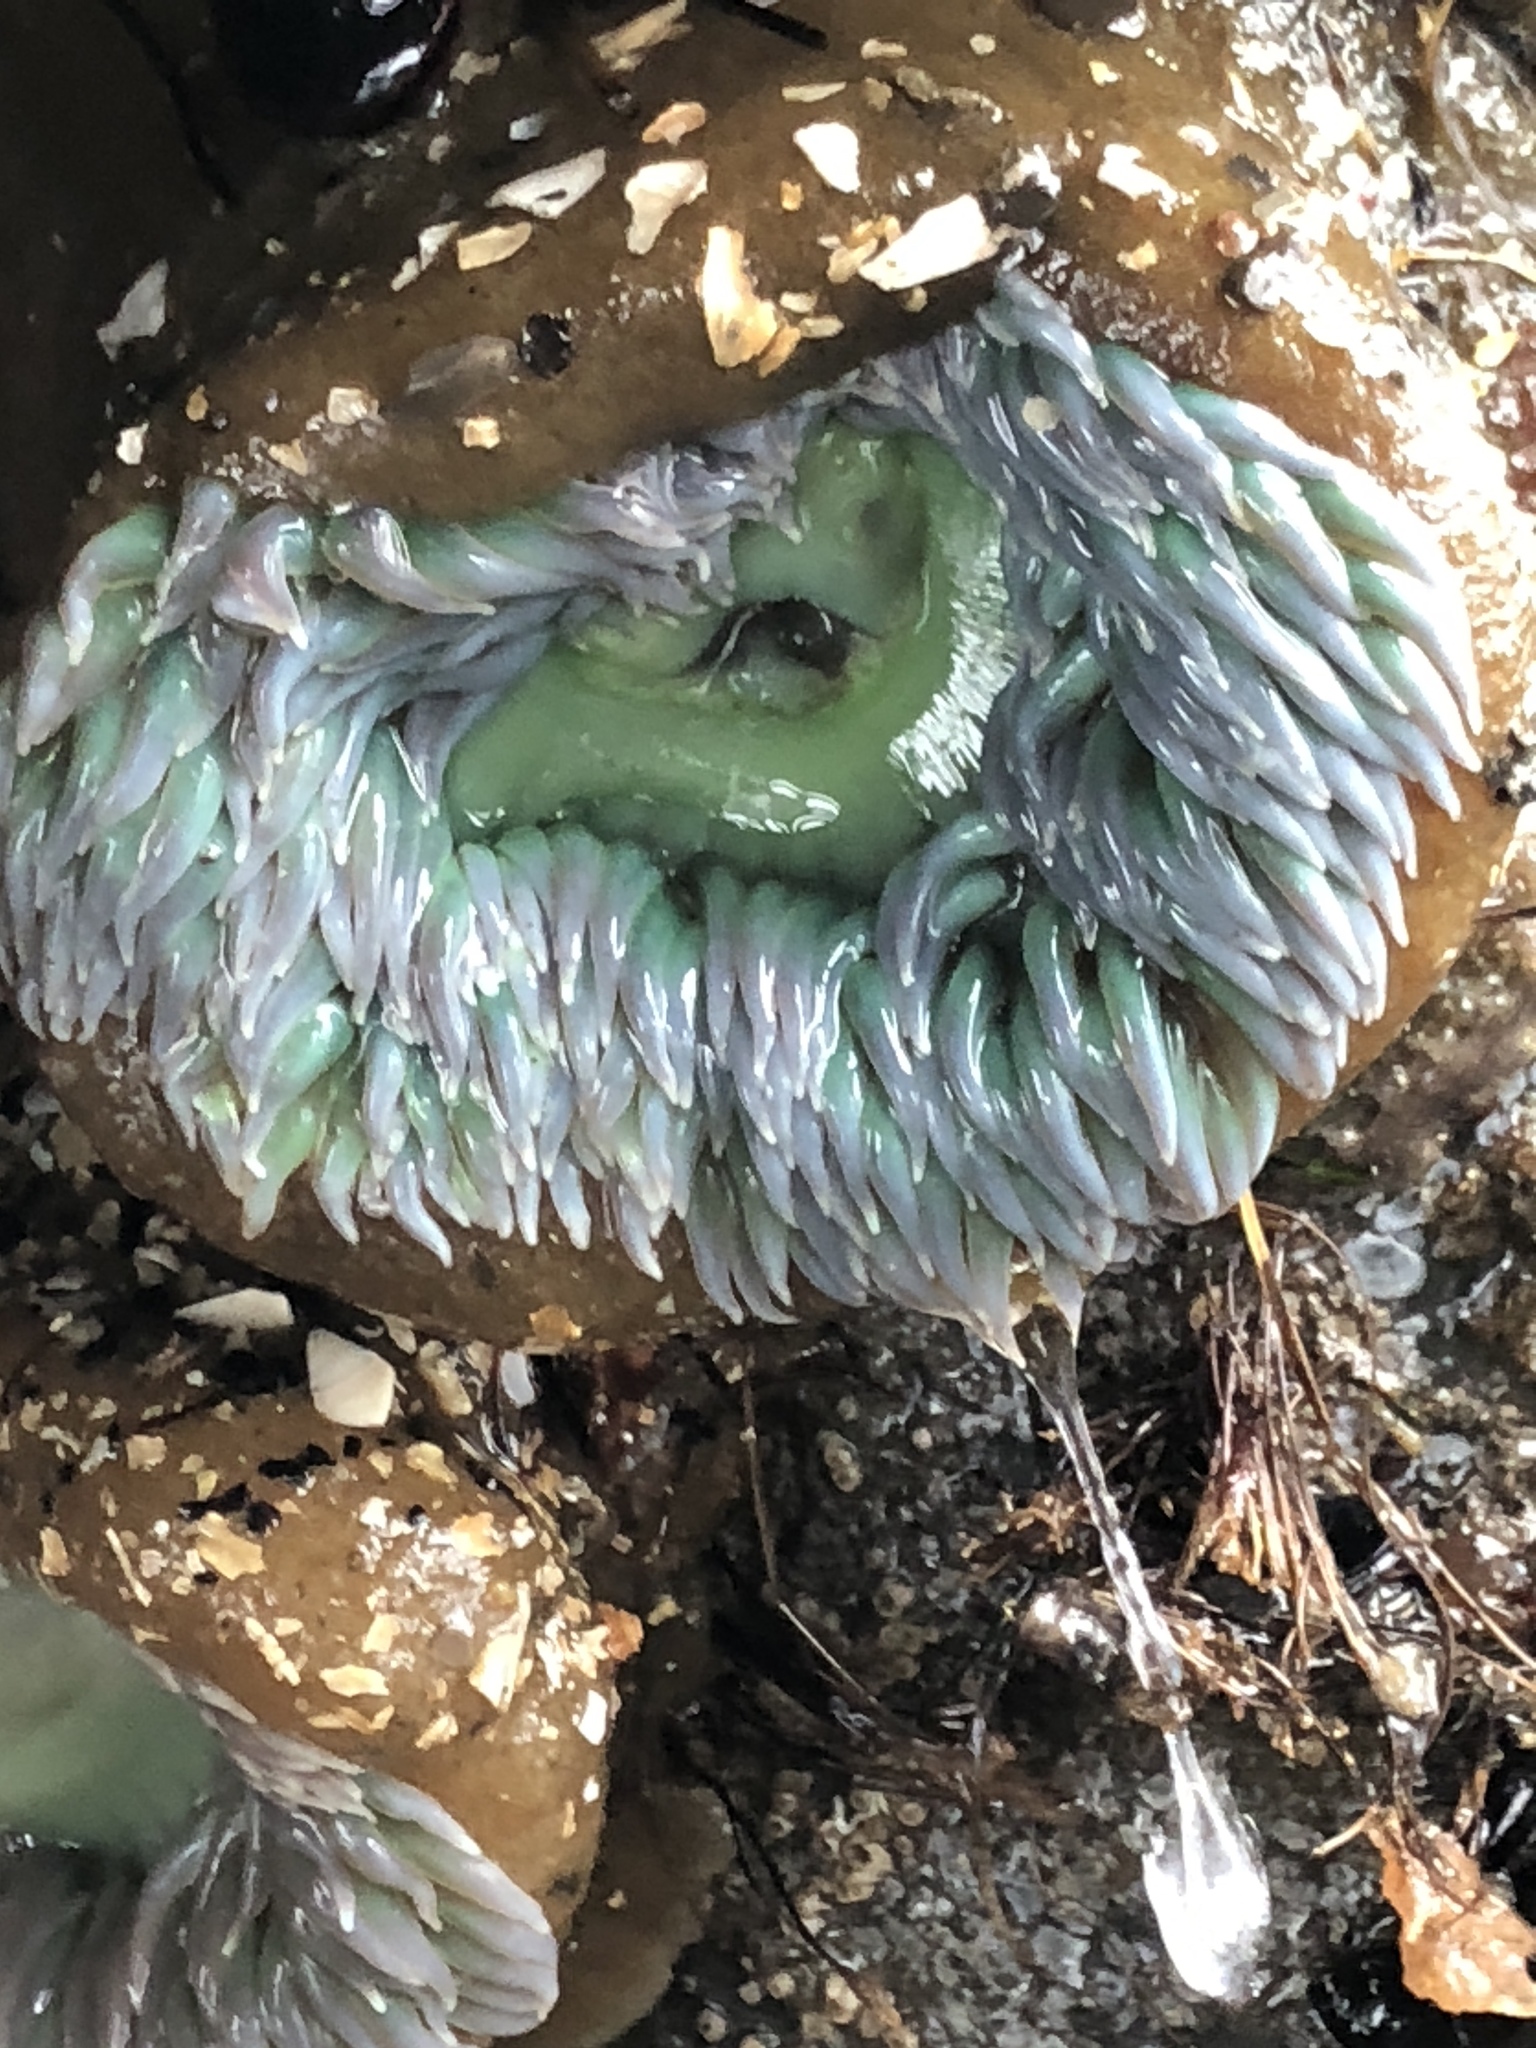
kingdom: Animalia
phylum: Cnidaria
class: Anthozoa
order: Actiniaria
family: Actiniidae
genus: Anthopleura
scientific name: Anthopleura xanthogrammica
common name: Giant green anemone
